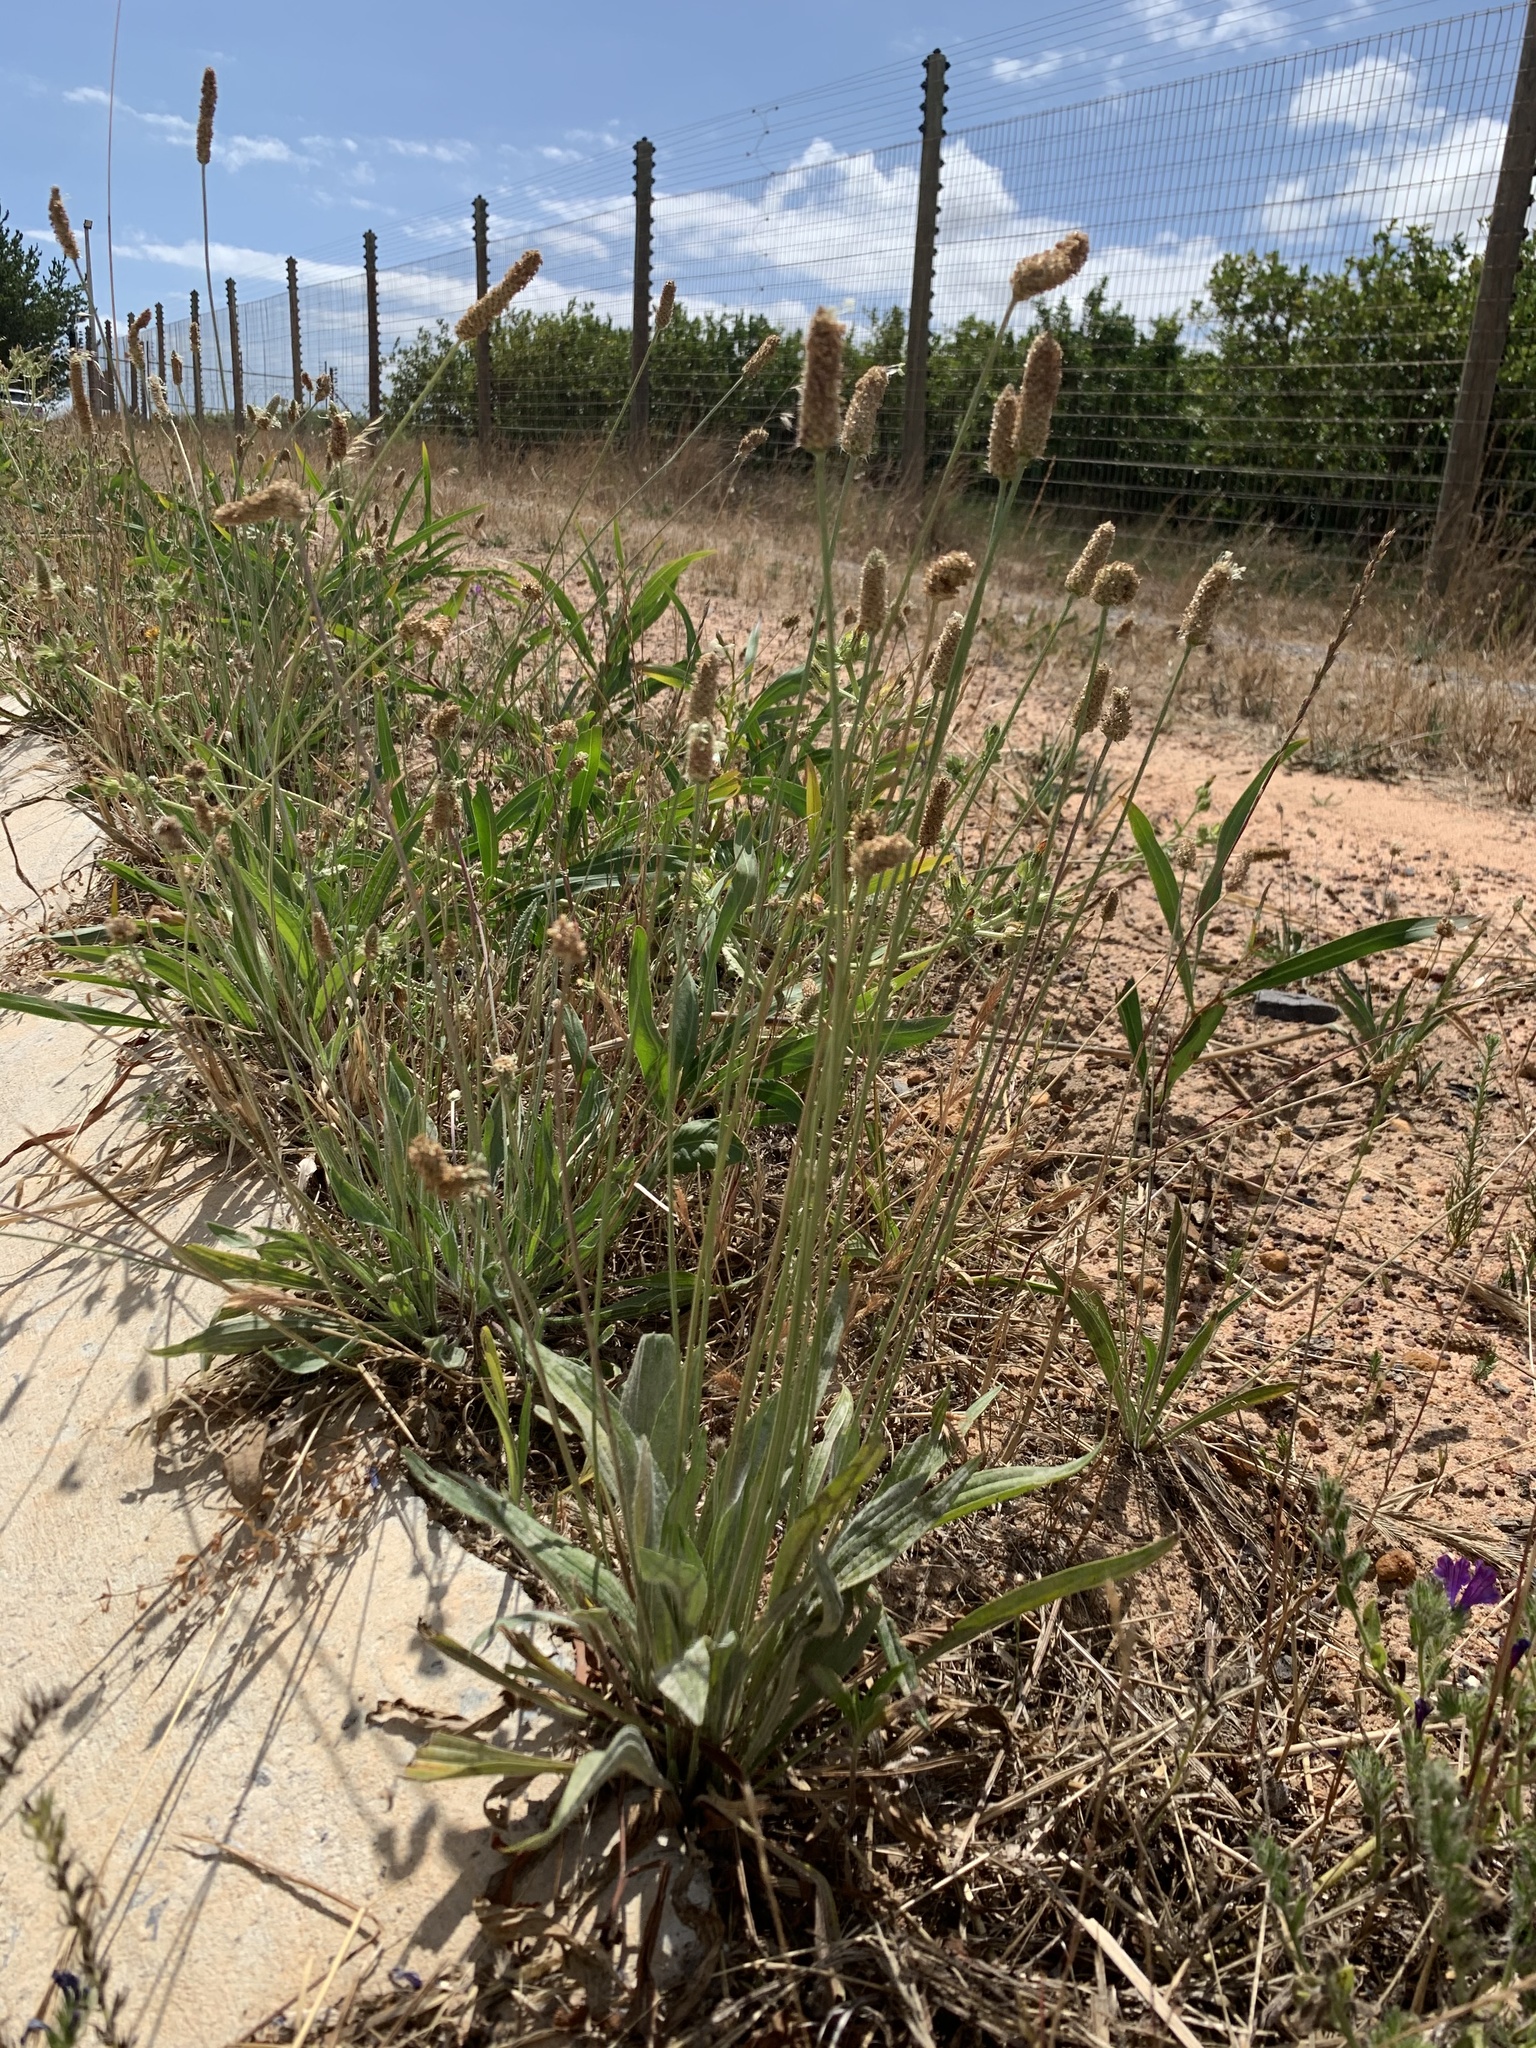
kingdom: Plantae
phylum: Tracheophyta
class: Magnoliopsida
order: Lamiales
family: Plantaginaceae
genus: Plantago
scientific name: Plantago lanceolata
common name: Ribwort plantain
